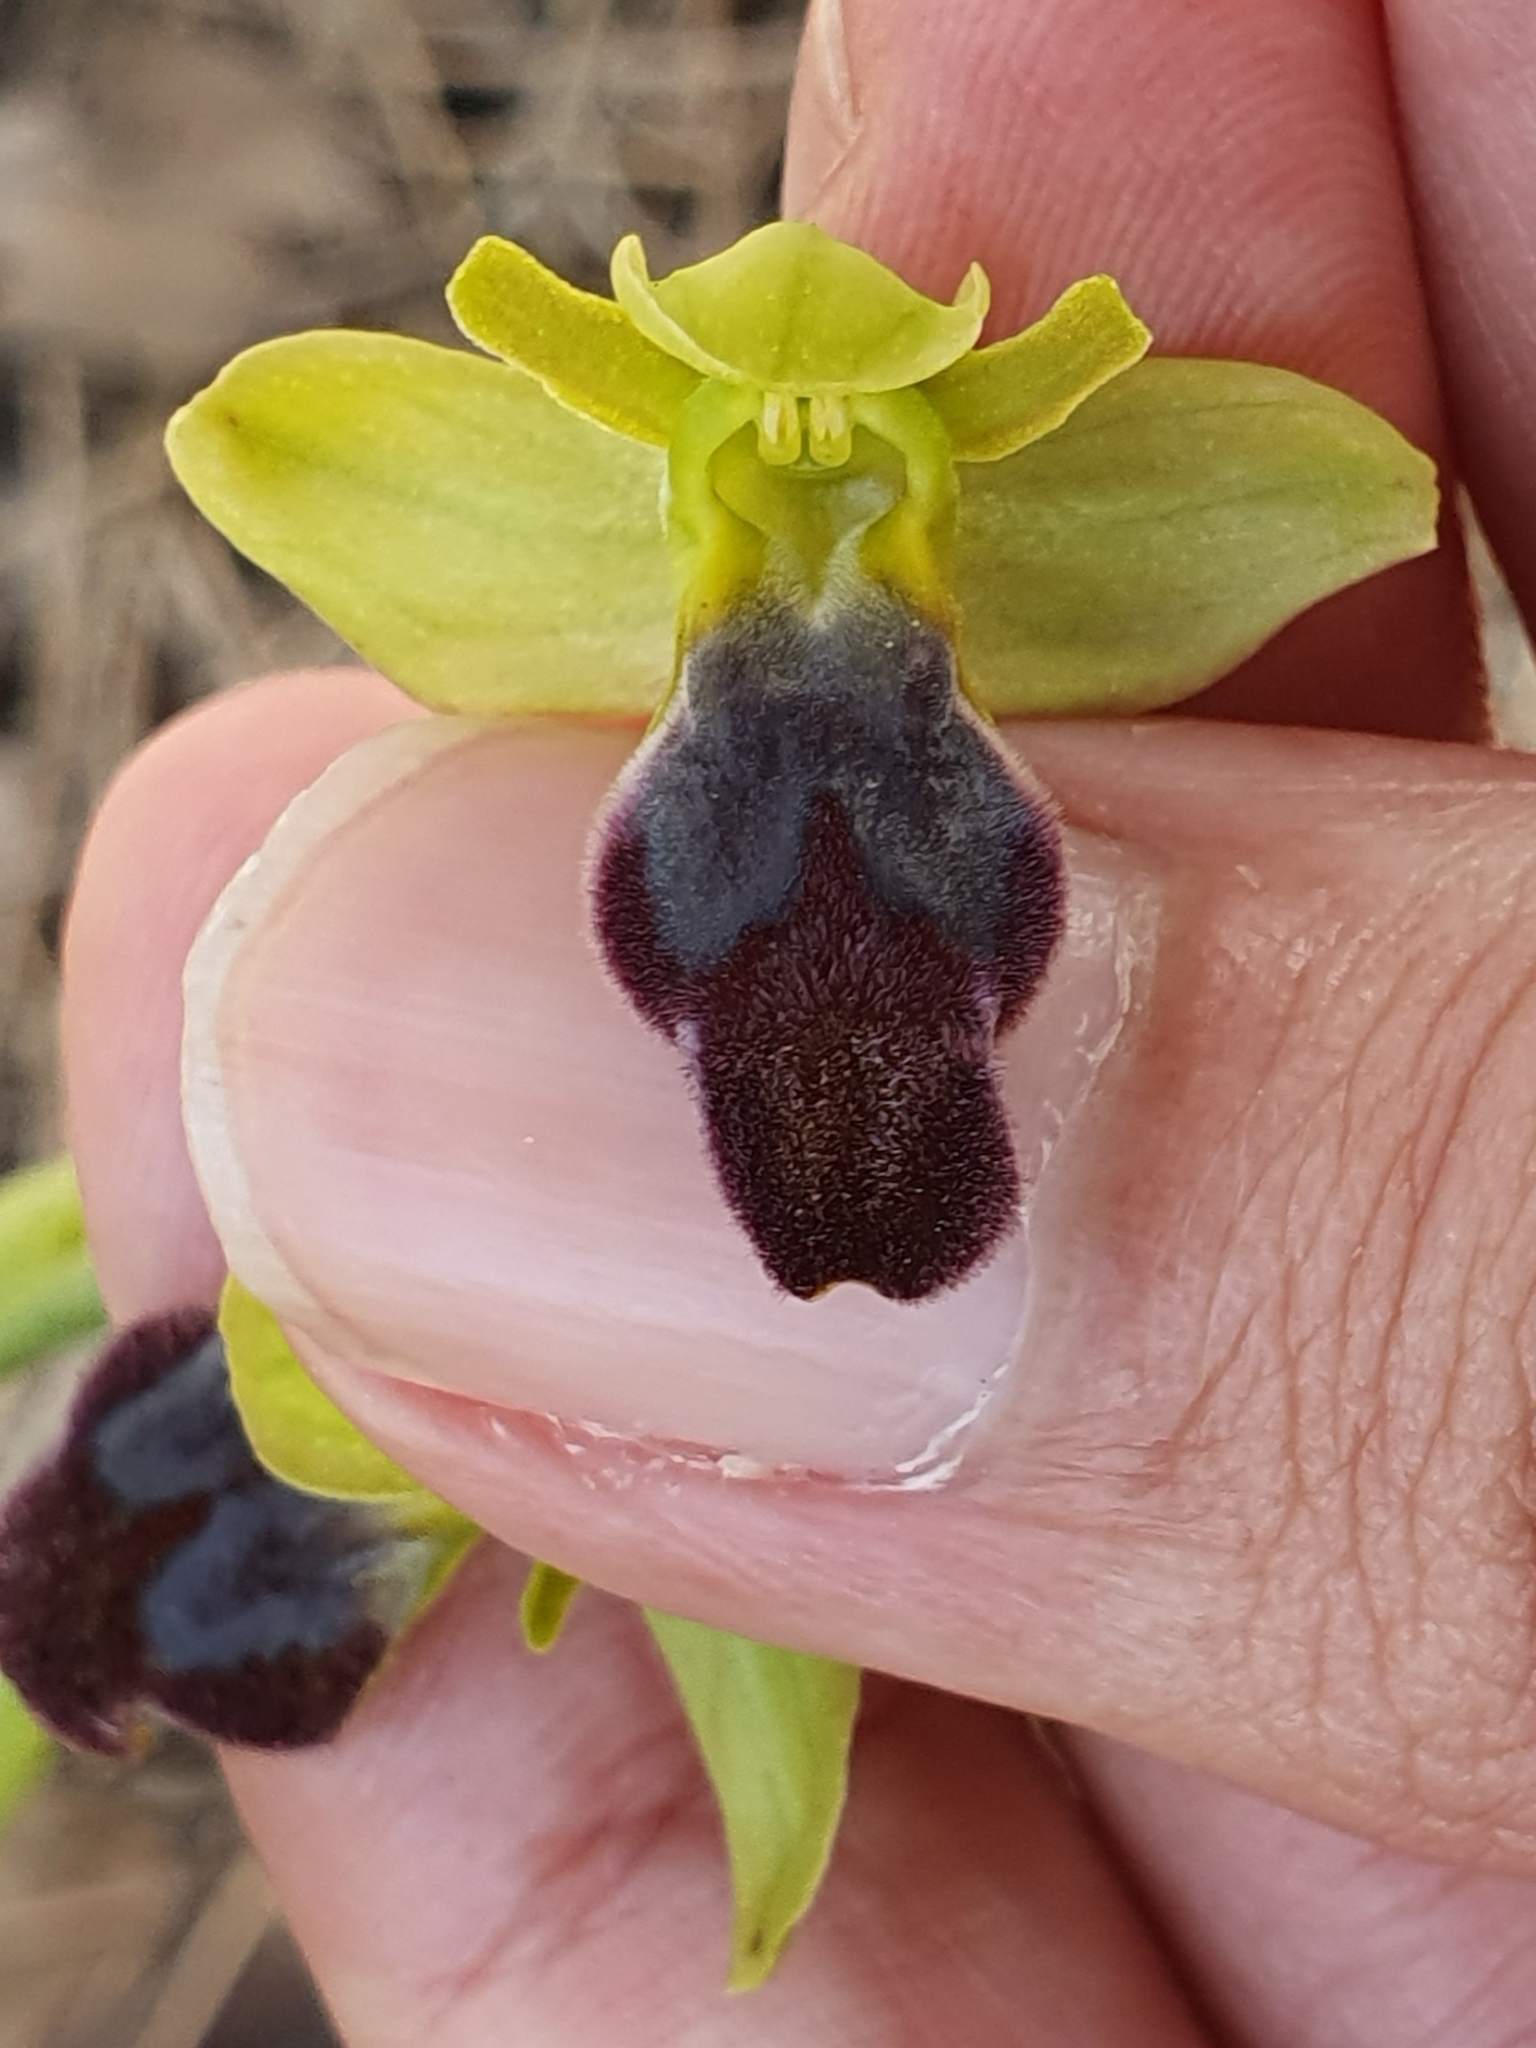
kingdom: Plantae
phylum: Tracheophyta
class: Liliopsida
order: Asparagales
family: Orchidaceae
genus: Ophrys
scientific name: Ophrys fusca
